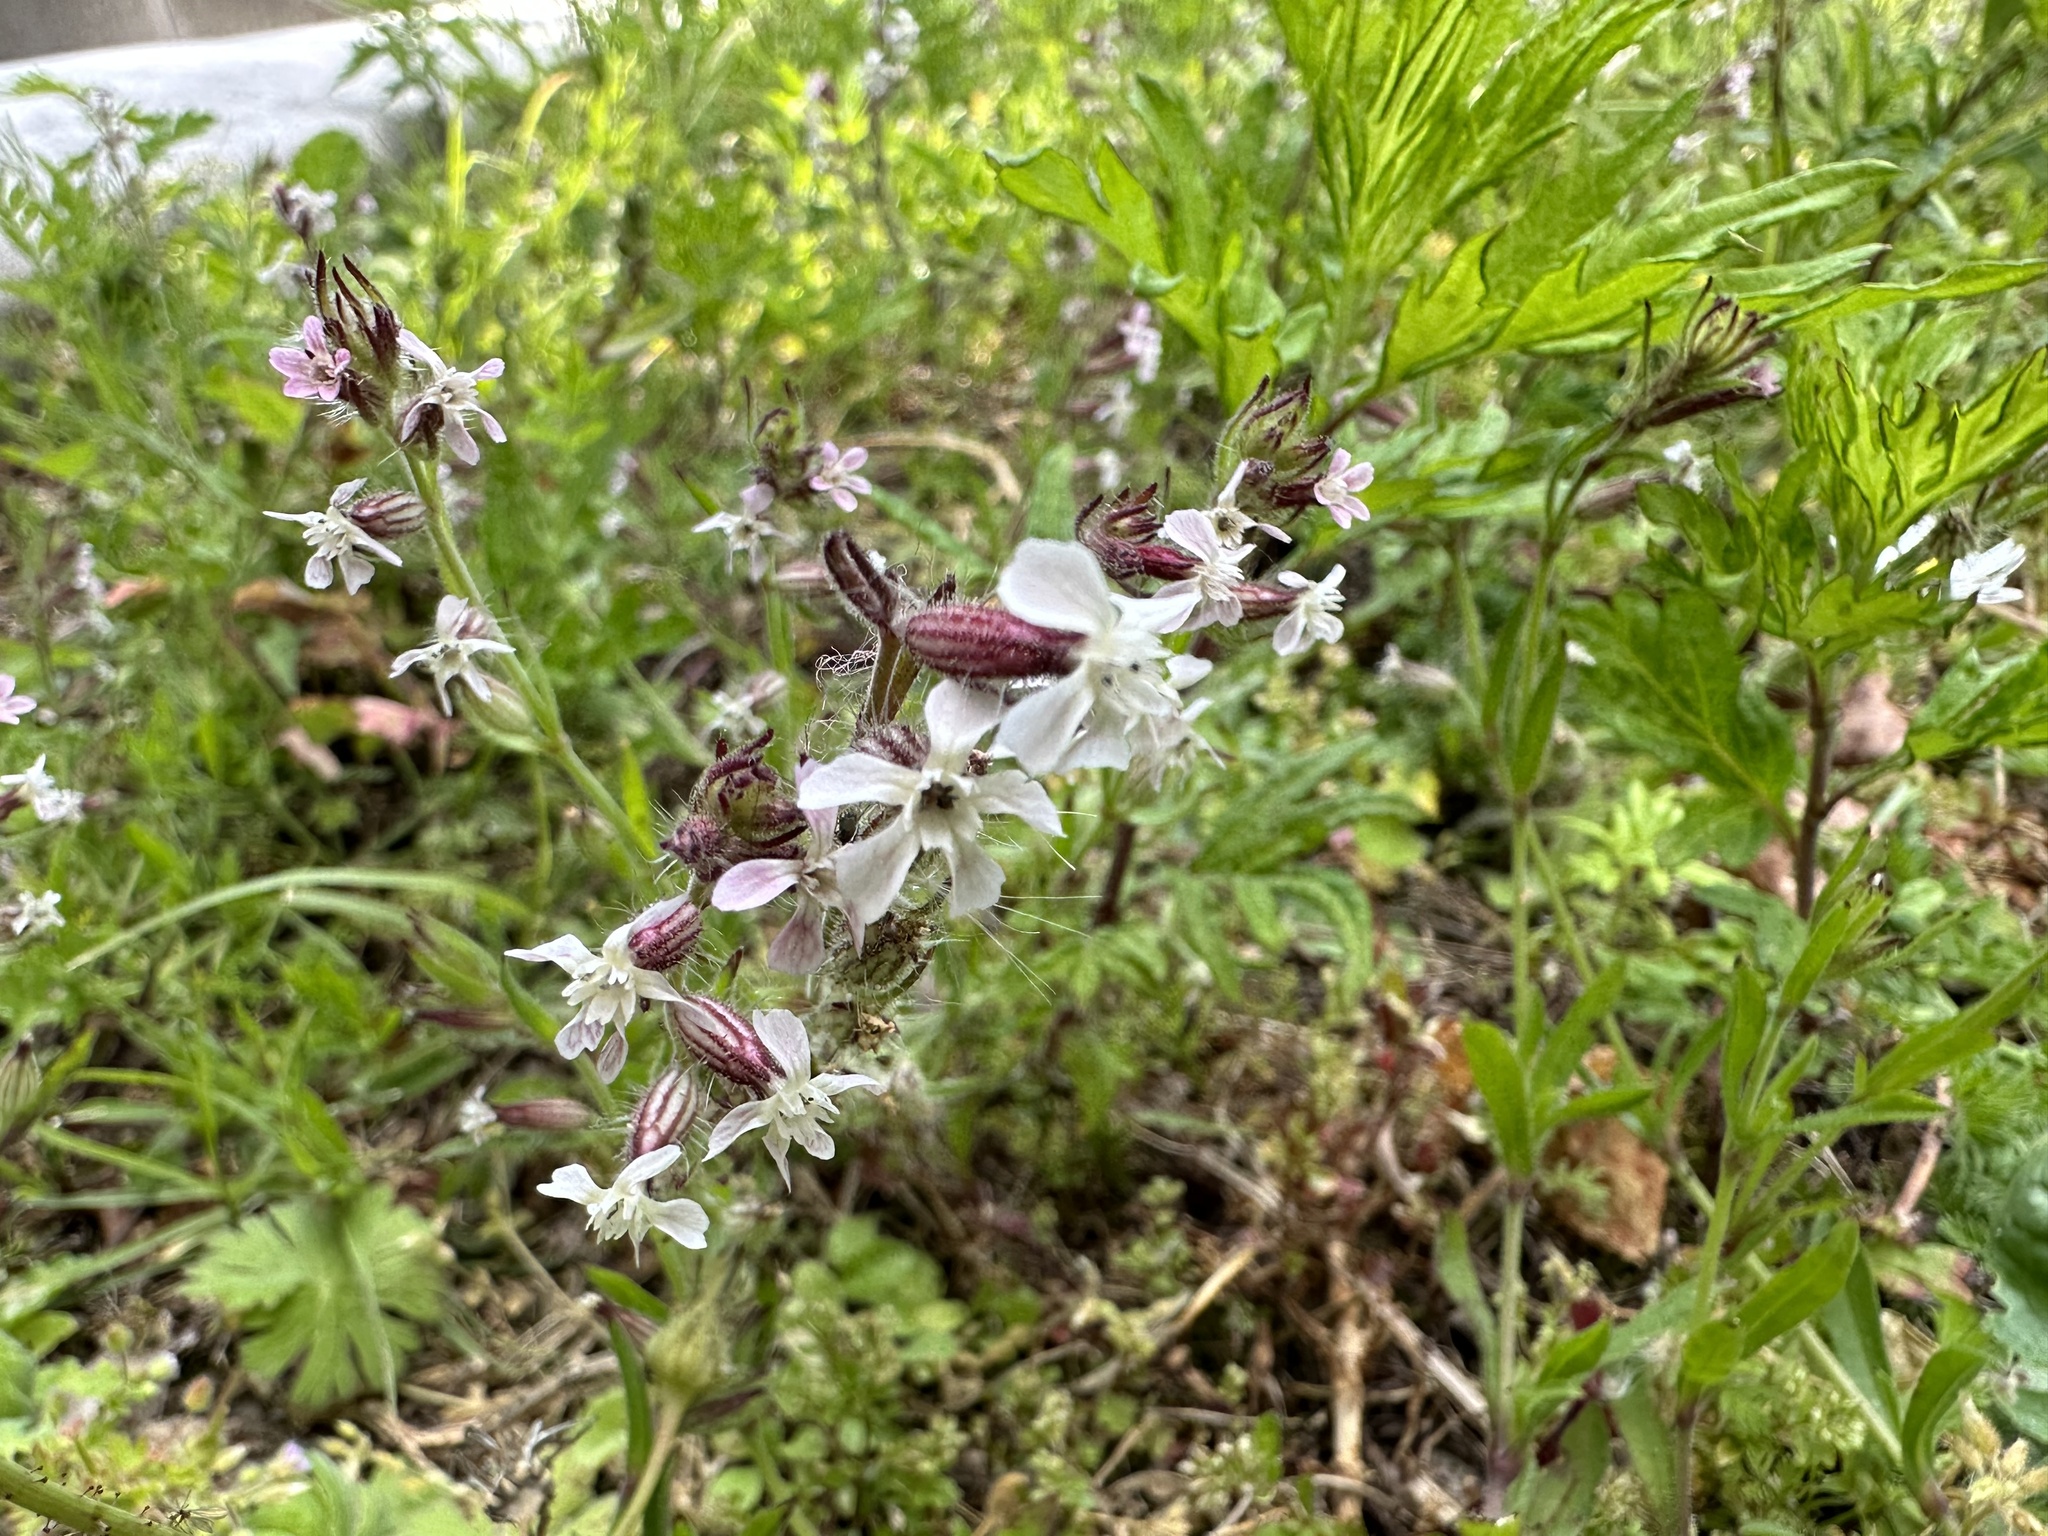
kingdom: Plantae
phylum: Tracheophyta
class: Magnoliopsida
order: Caryophyllales
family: Caryophyllaceae
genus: Silene
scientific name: Silene gallica
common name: Small-flowered catchfly
